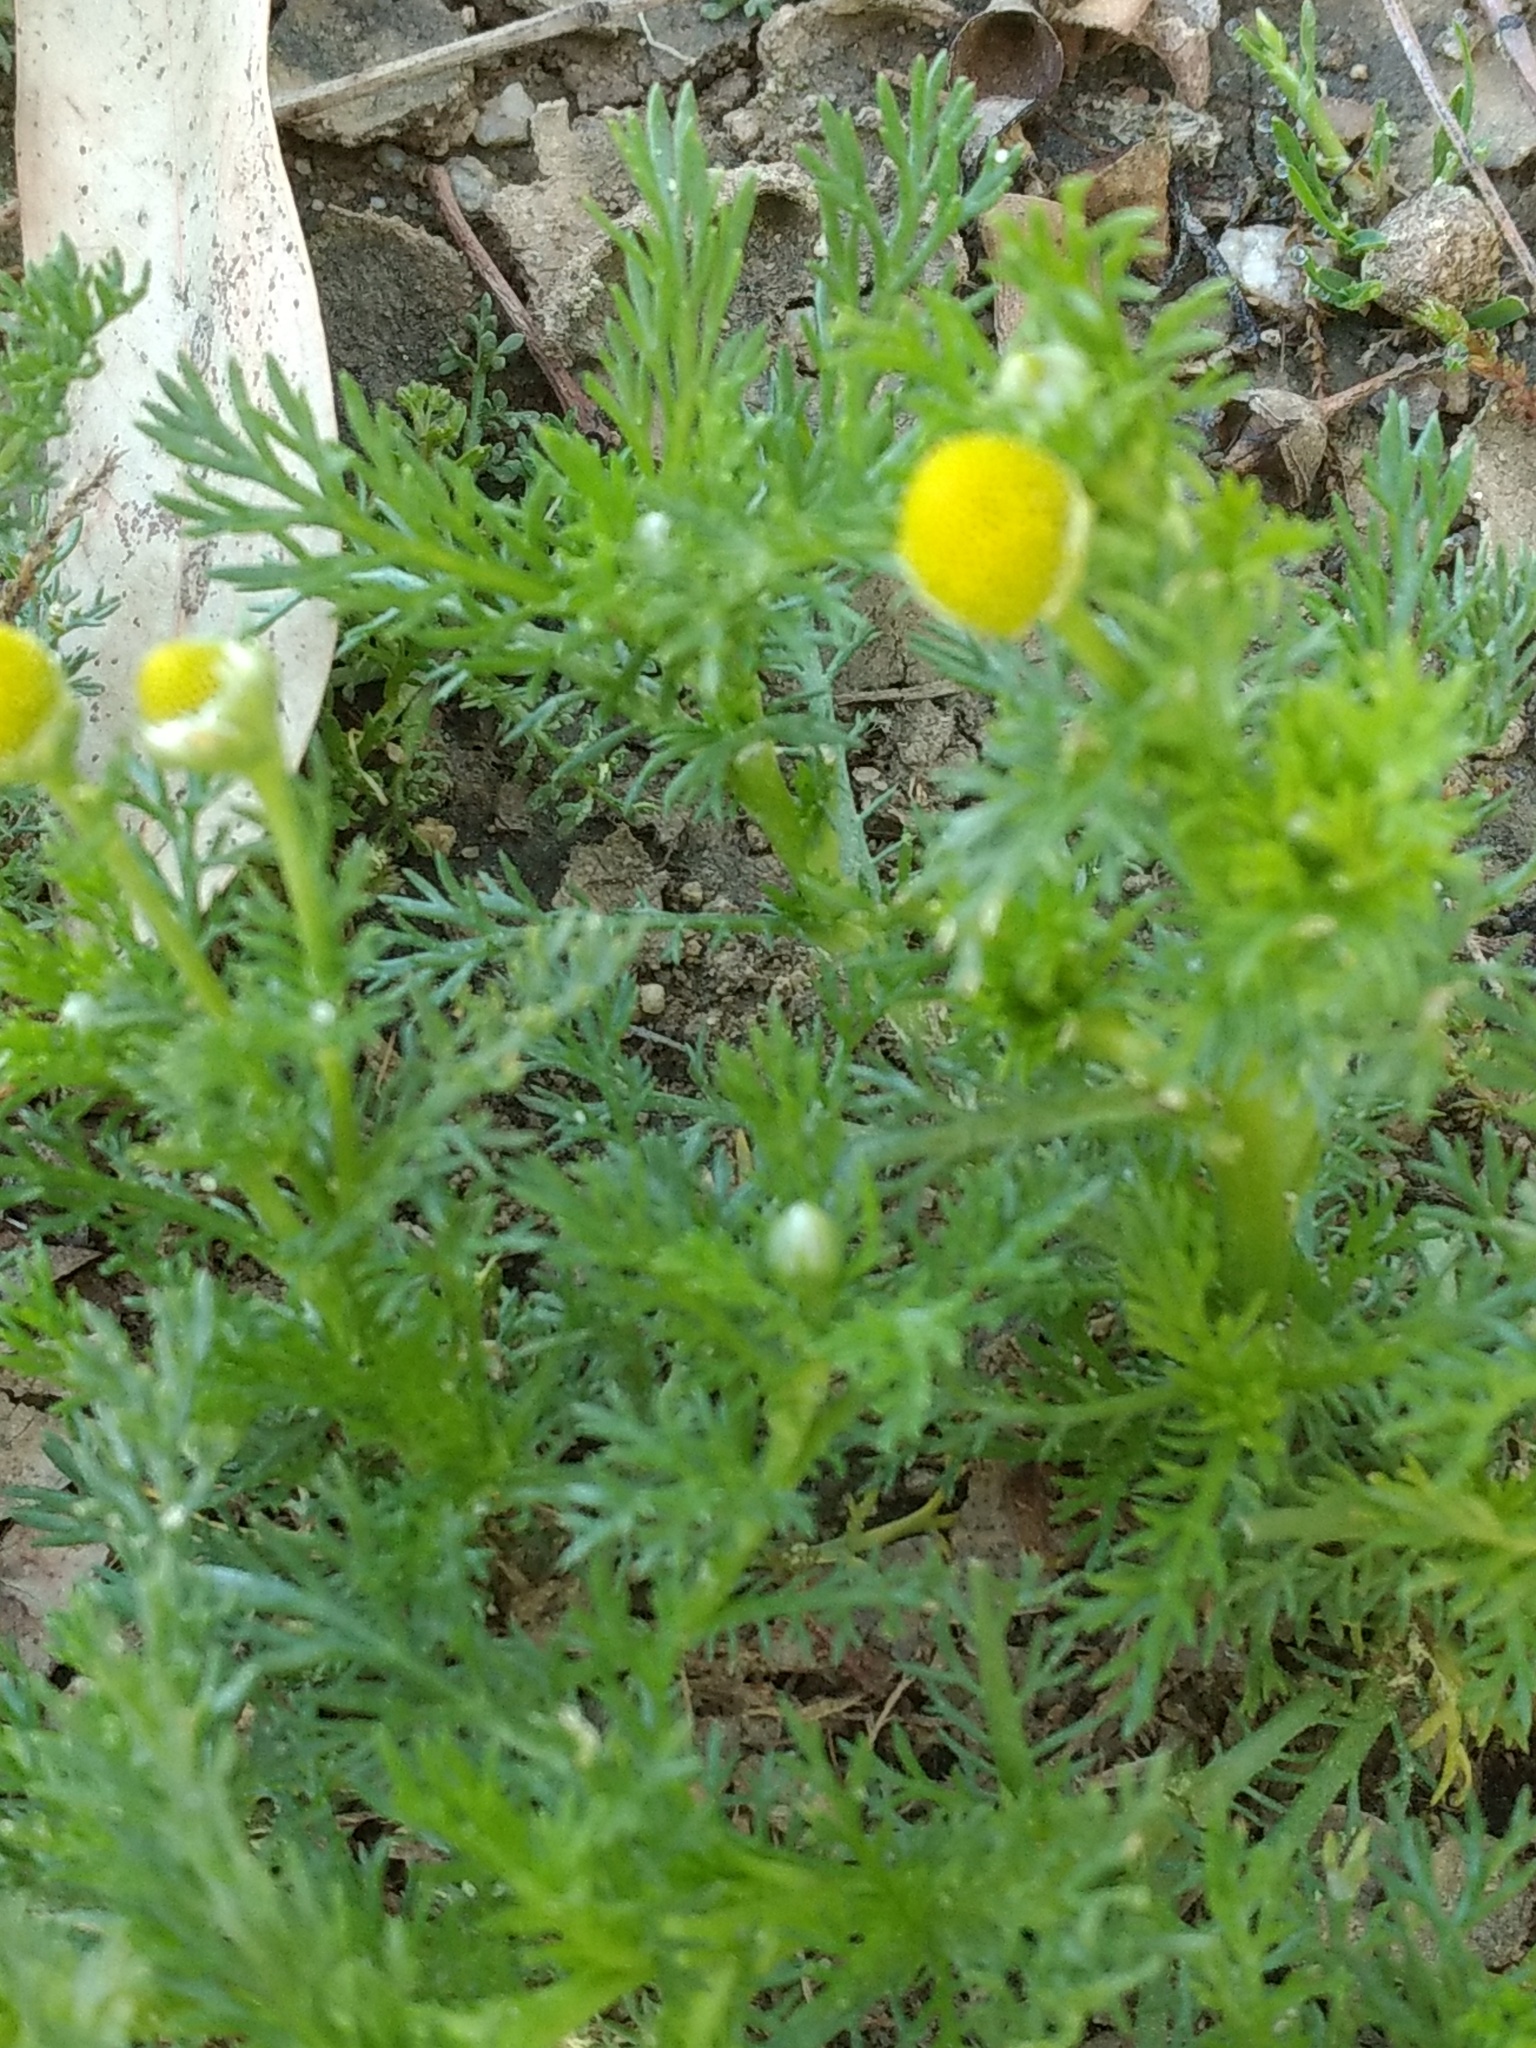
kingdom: Plantae
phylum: Tracheophyta
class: Magnoliopsida
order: Asterales
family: Asteraceae
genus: Matricaria
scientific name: Matricaria discoidea
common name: Disc mayweed
